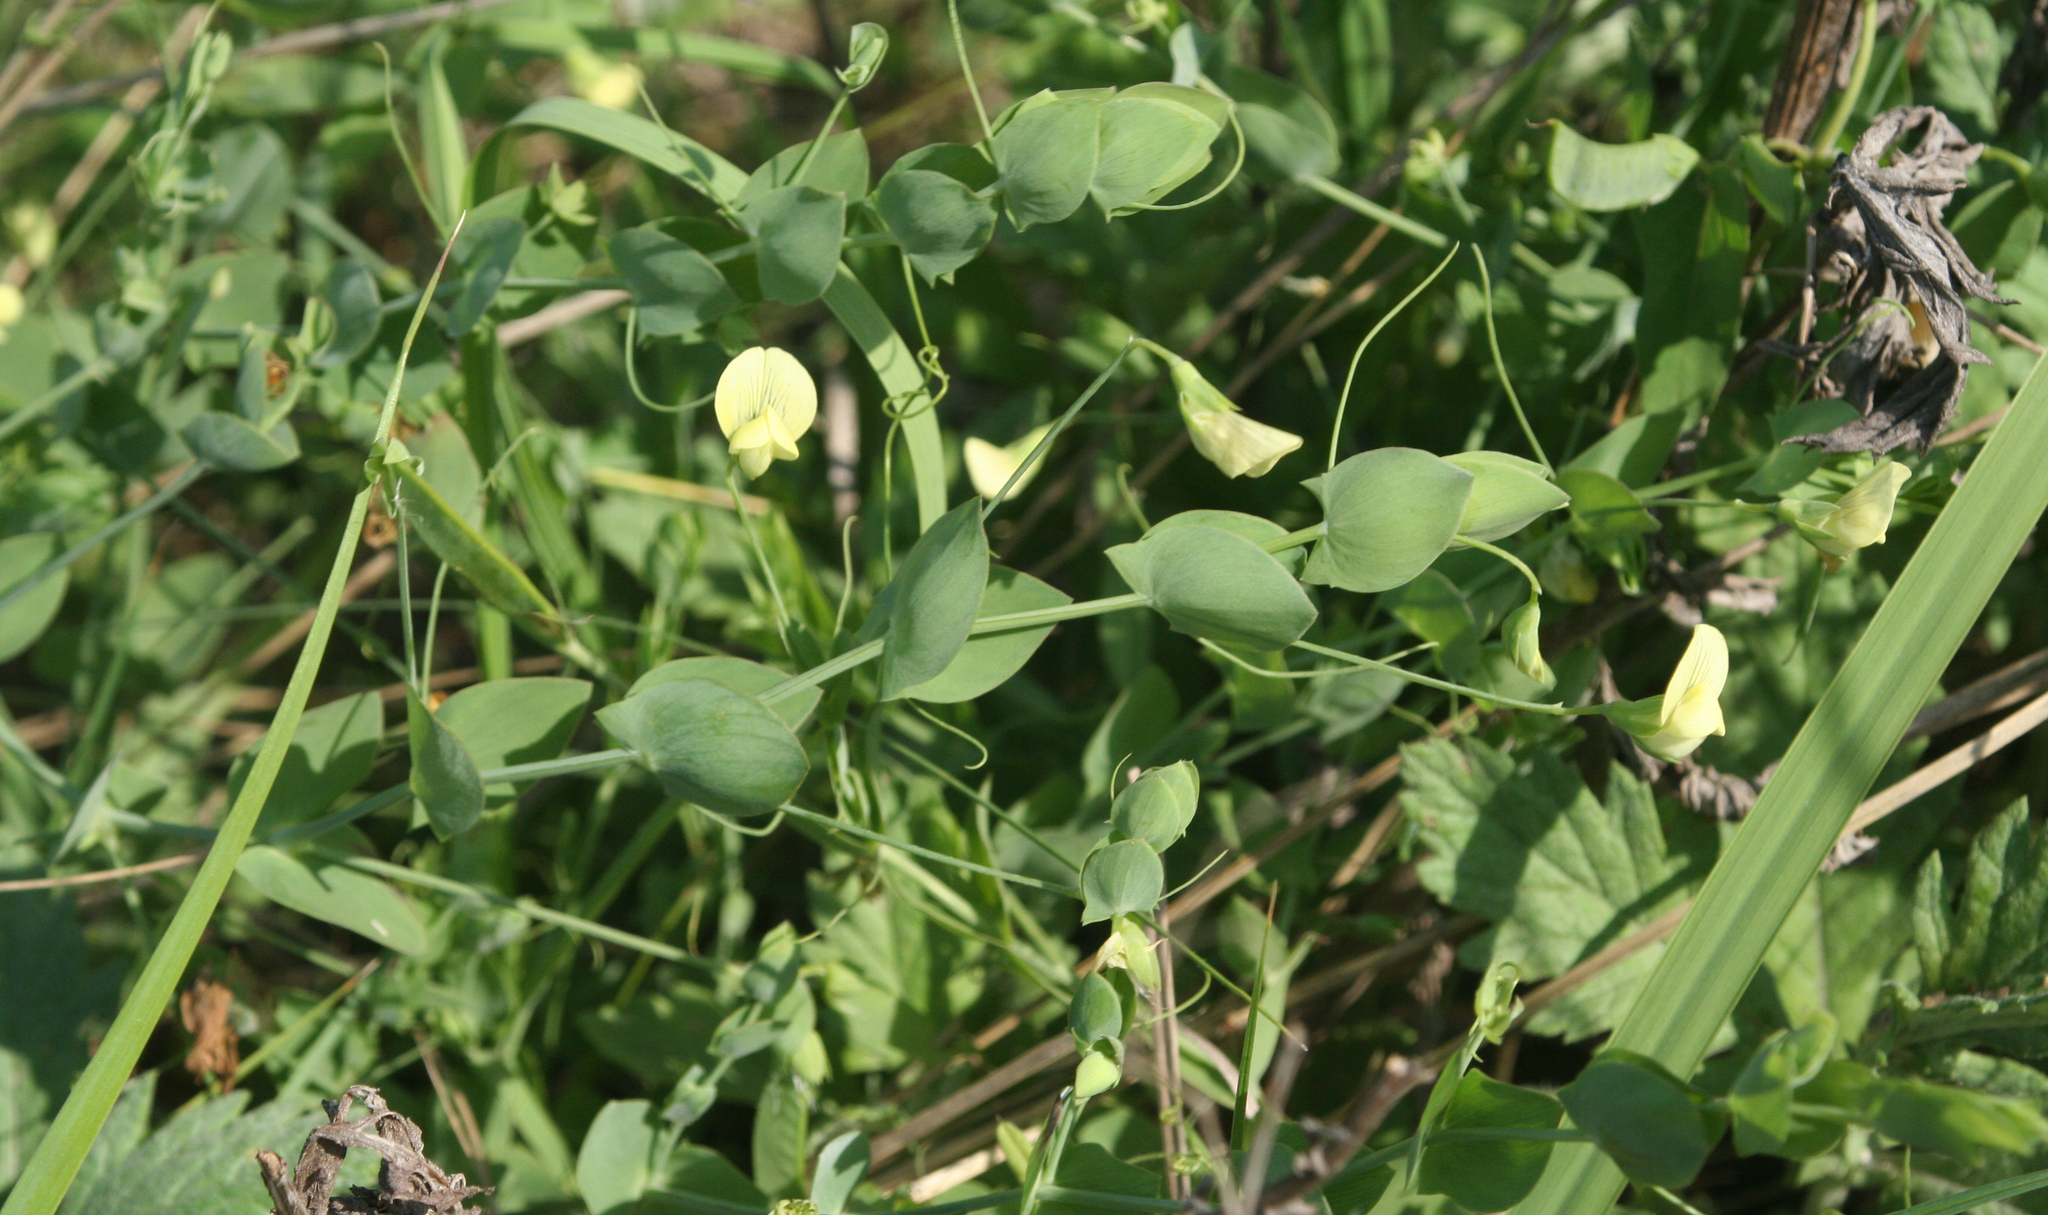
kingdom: Plantae
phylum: Tracheophyta
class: Magnoliopsida
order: Fabales
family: Fabaceae
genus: Lathyrus
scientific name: Lathyrus aphaca
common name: Yellow vetchling
